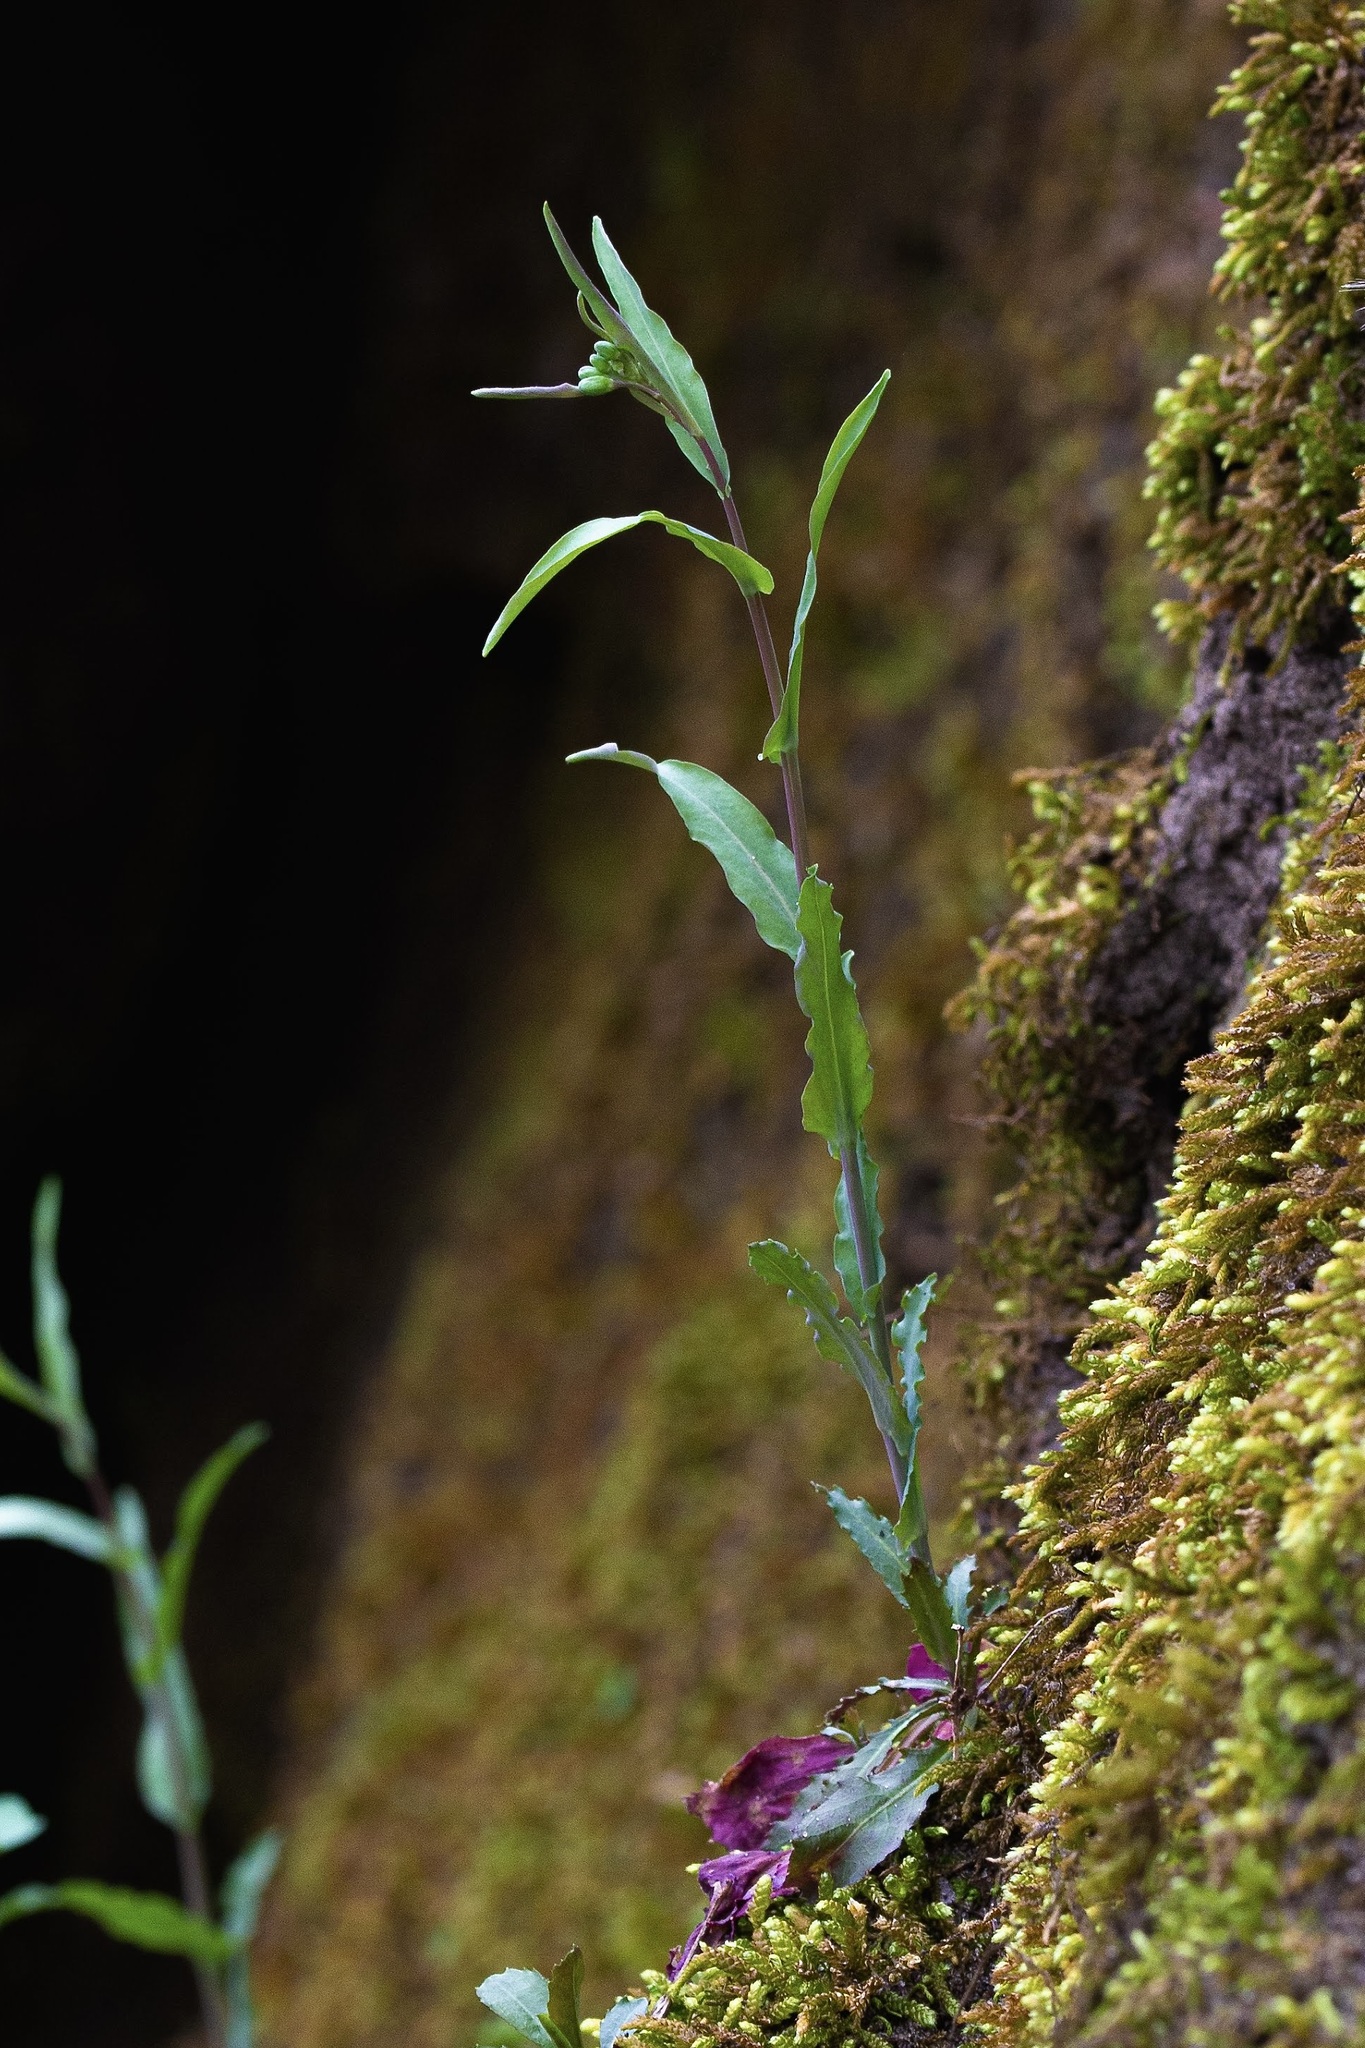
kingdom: Plantae
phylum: Tracheophyta
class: Magnoliopsida
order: Brassicales
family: Brassicaceae
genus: Borodinia
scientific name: Borodinia laevigata
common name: Smooth rockcress
